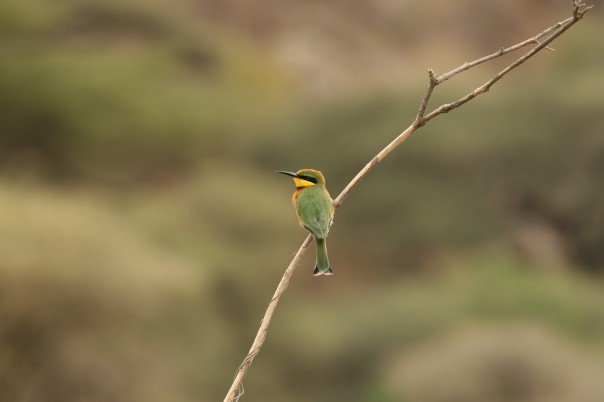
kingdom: Animalia
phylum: Chordata
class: Aves
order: Coraciiformes
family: Meropidae
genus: Merops
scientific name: Merops pusillus
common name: Little bee-eater
